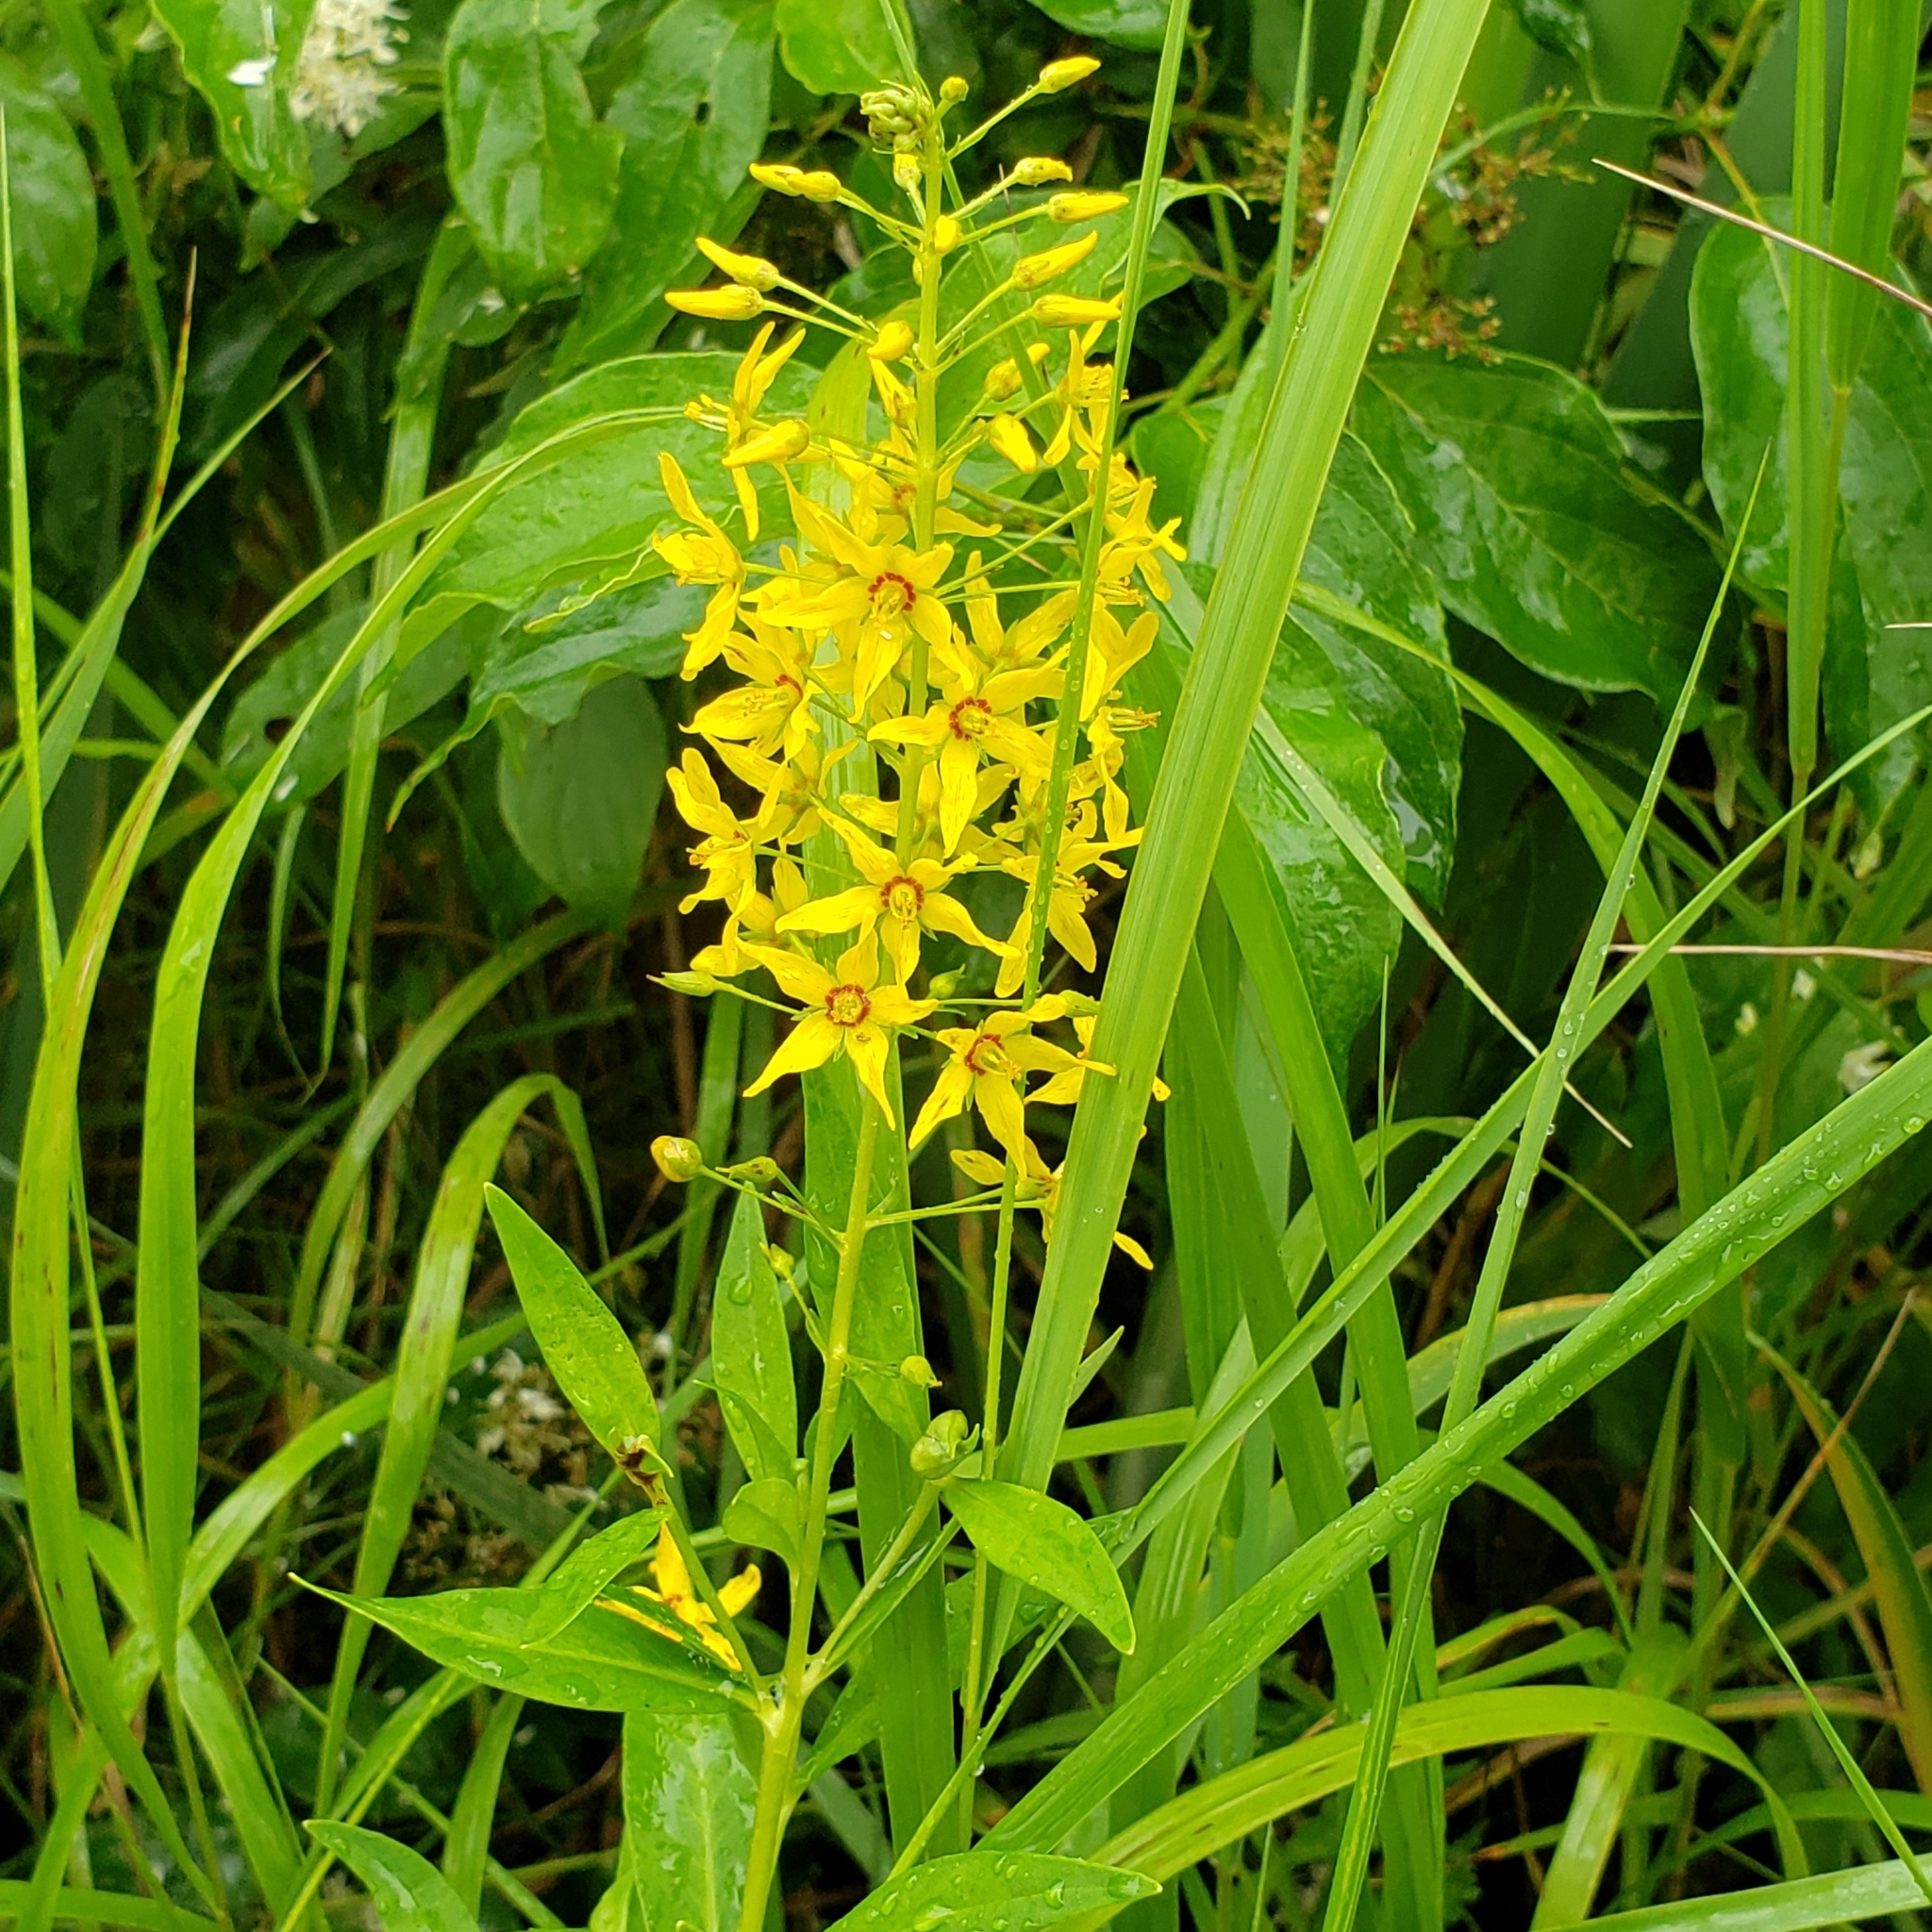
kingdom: Plantae
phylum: Tracheophyta
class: Magnoliopsida
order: Ericales
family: Primulaceae
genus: Lysimachia
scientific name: Lysimachia terrestris
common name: Lake loosestrife
